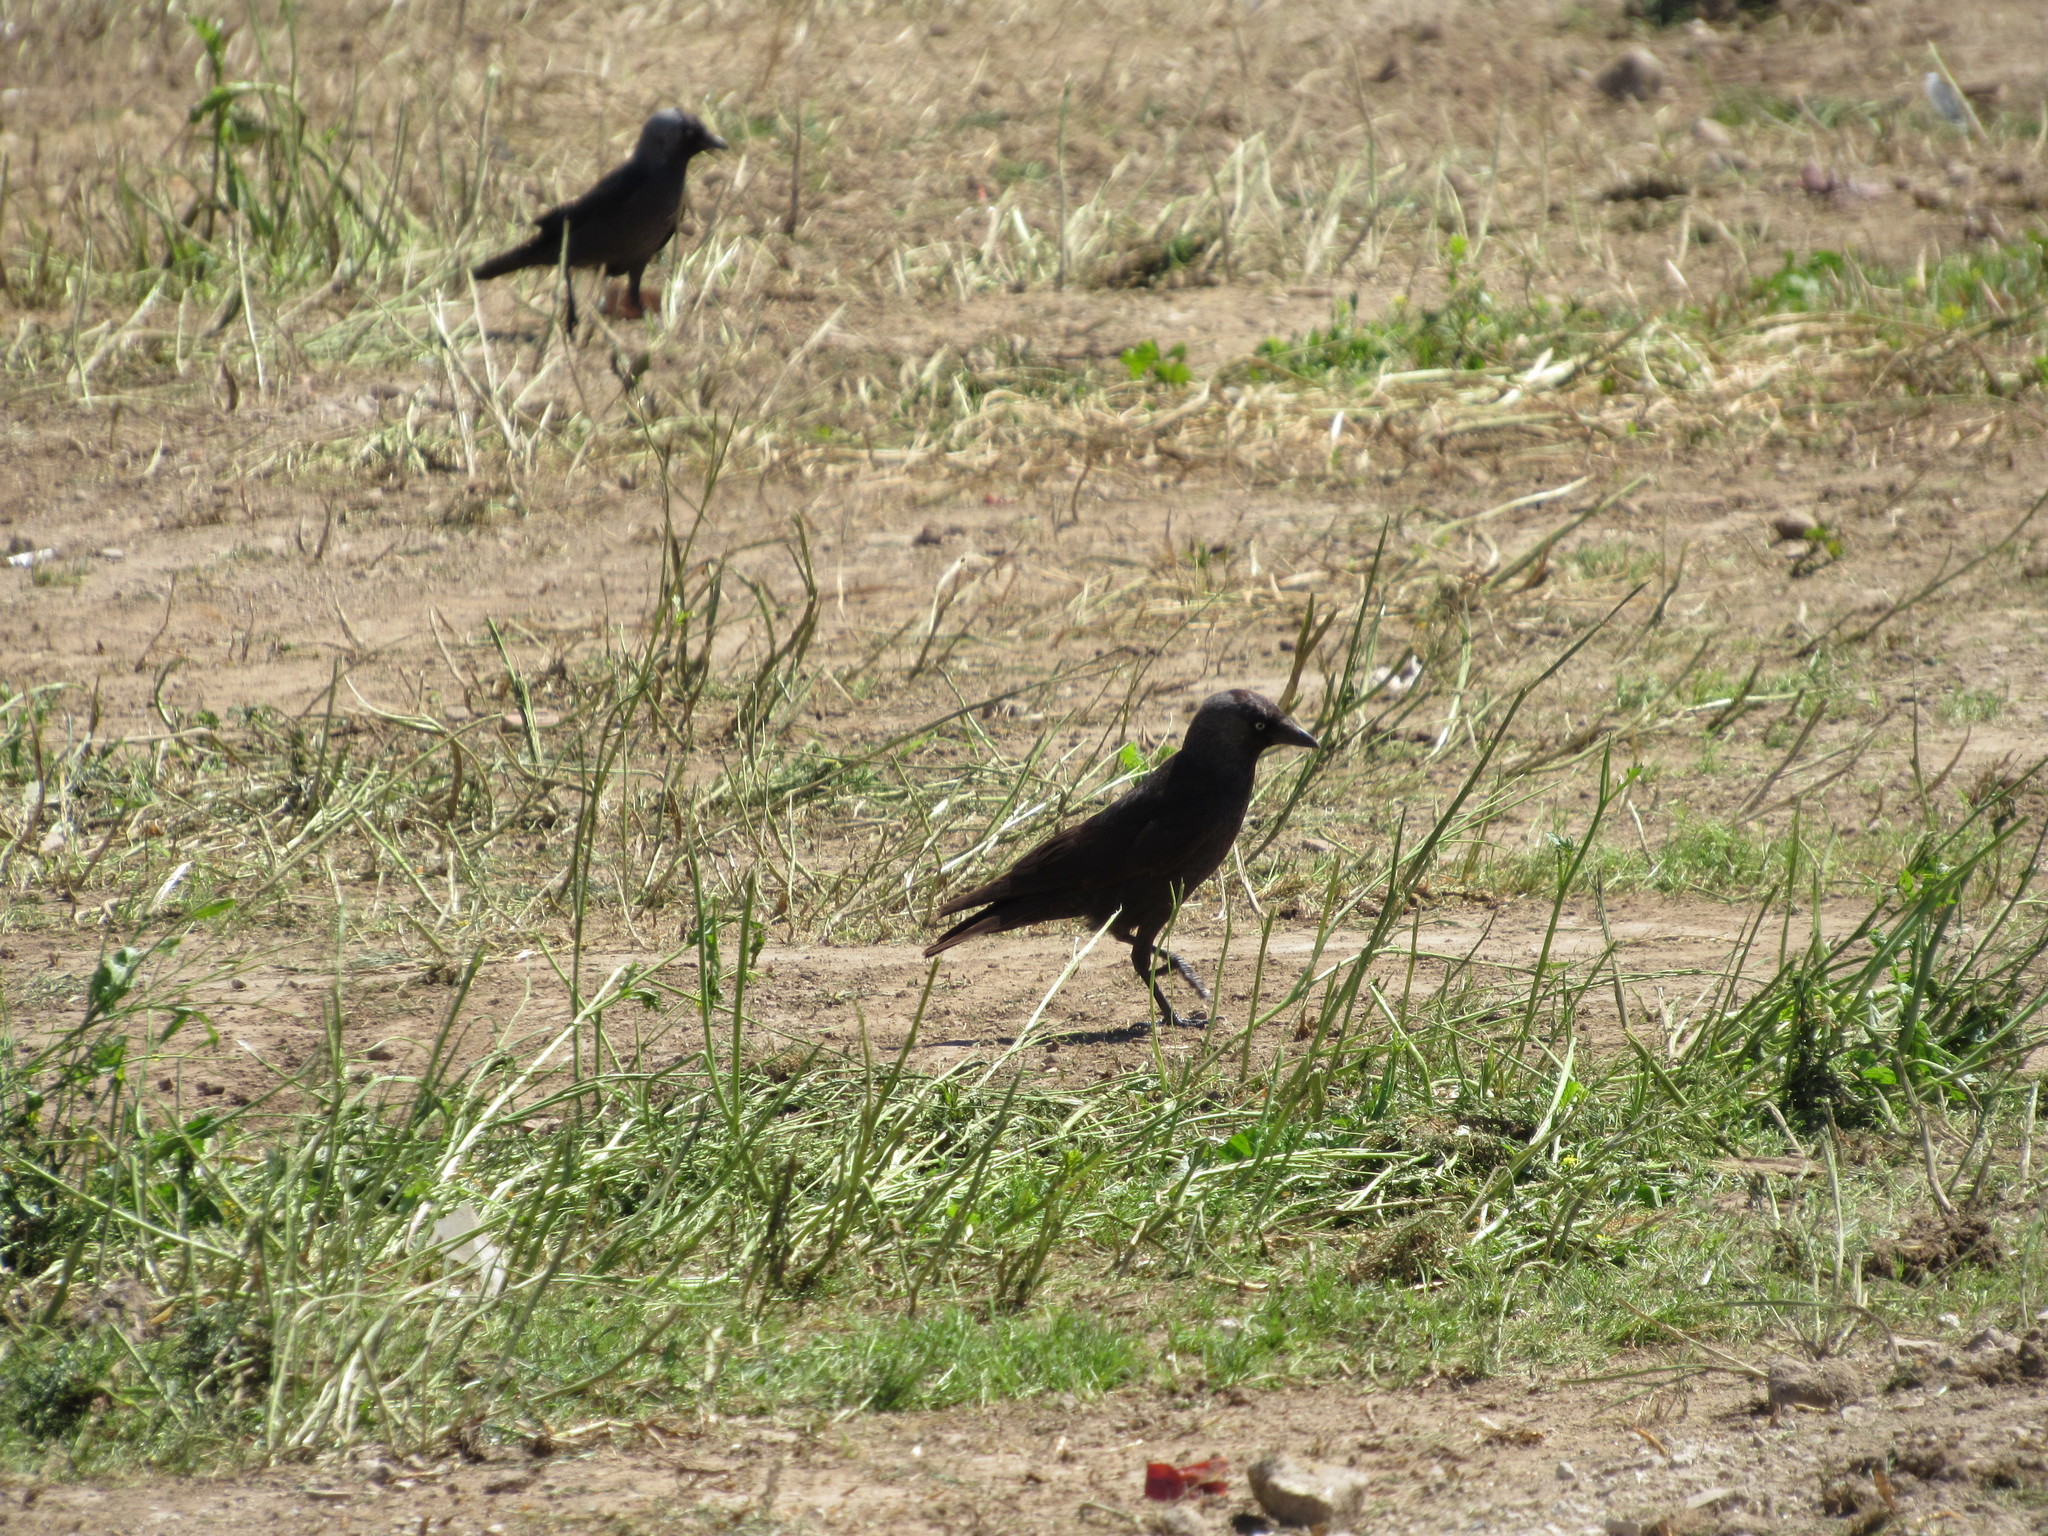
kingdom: Animalia
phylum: Chordata
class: Aves
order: Passeriformes
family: Corvidae
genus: Coloeus
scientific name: Coloeus monedula
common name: Western jackdaw
